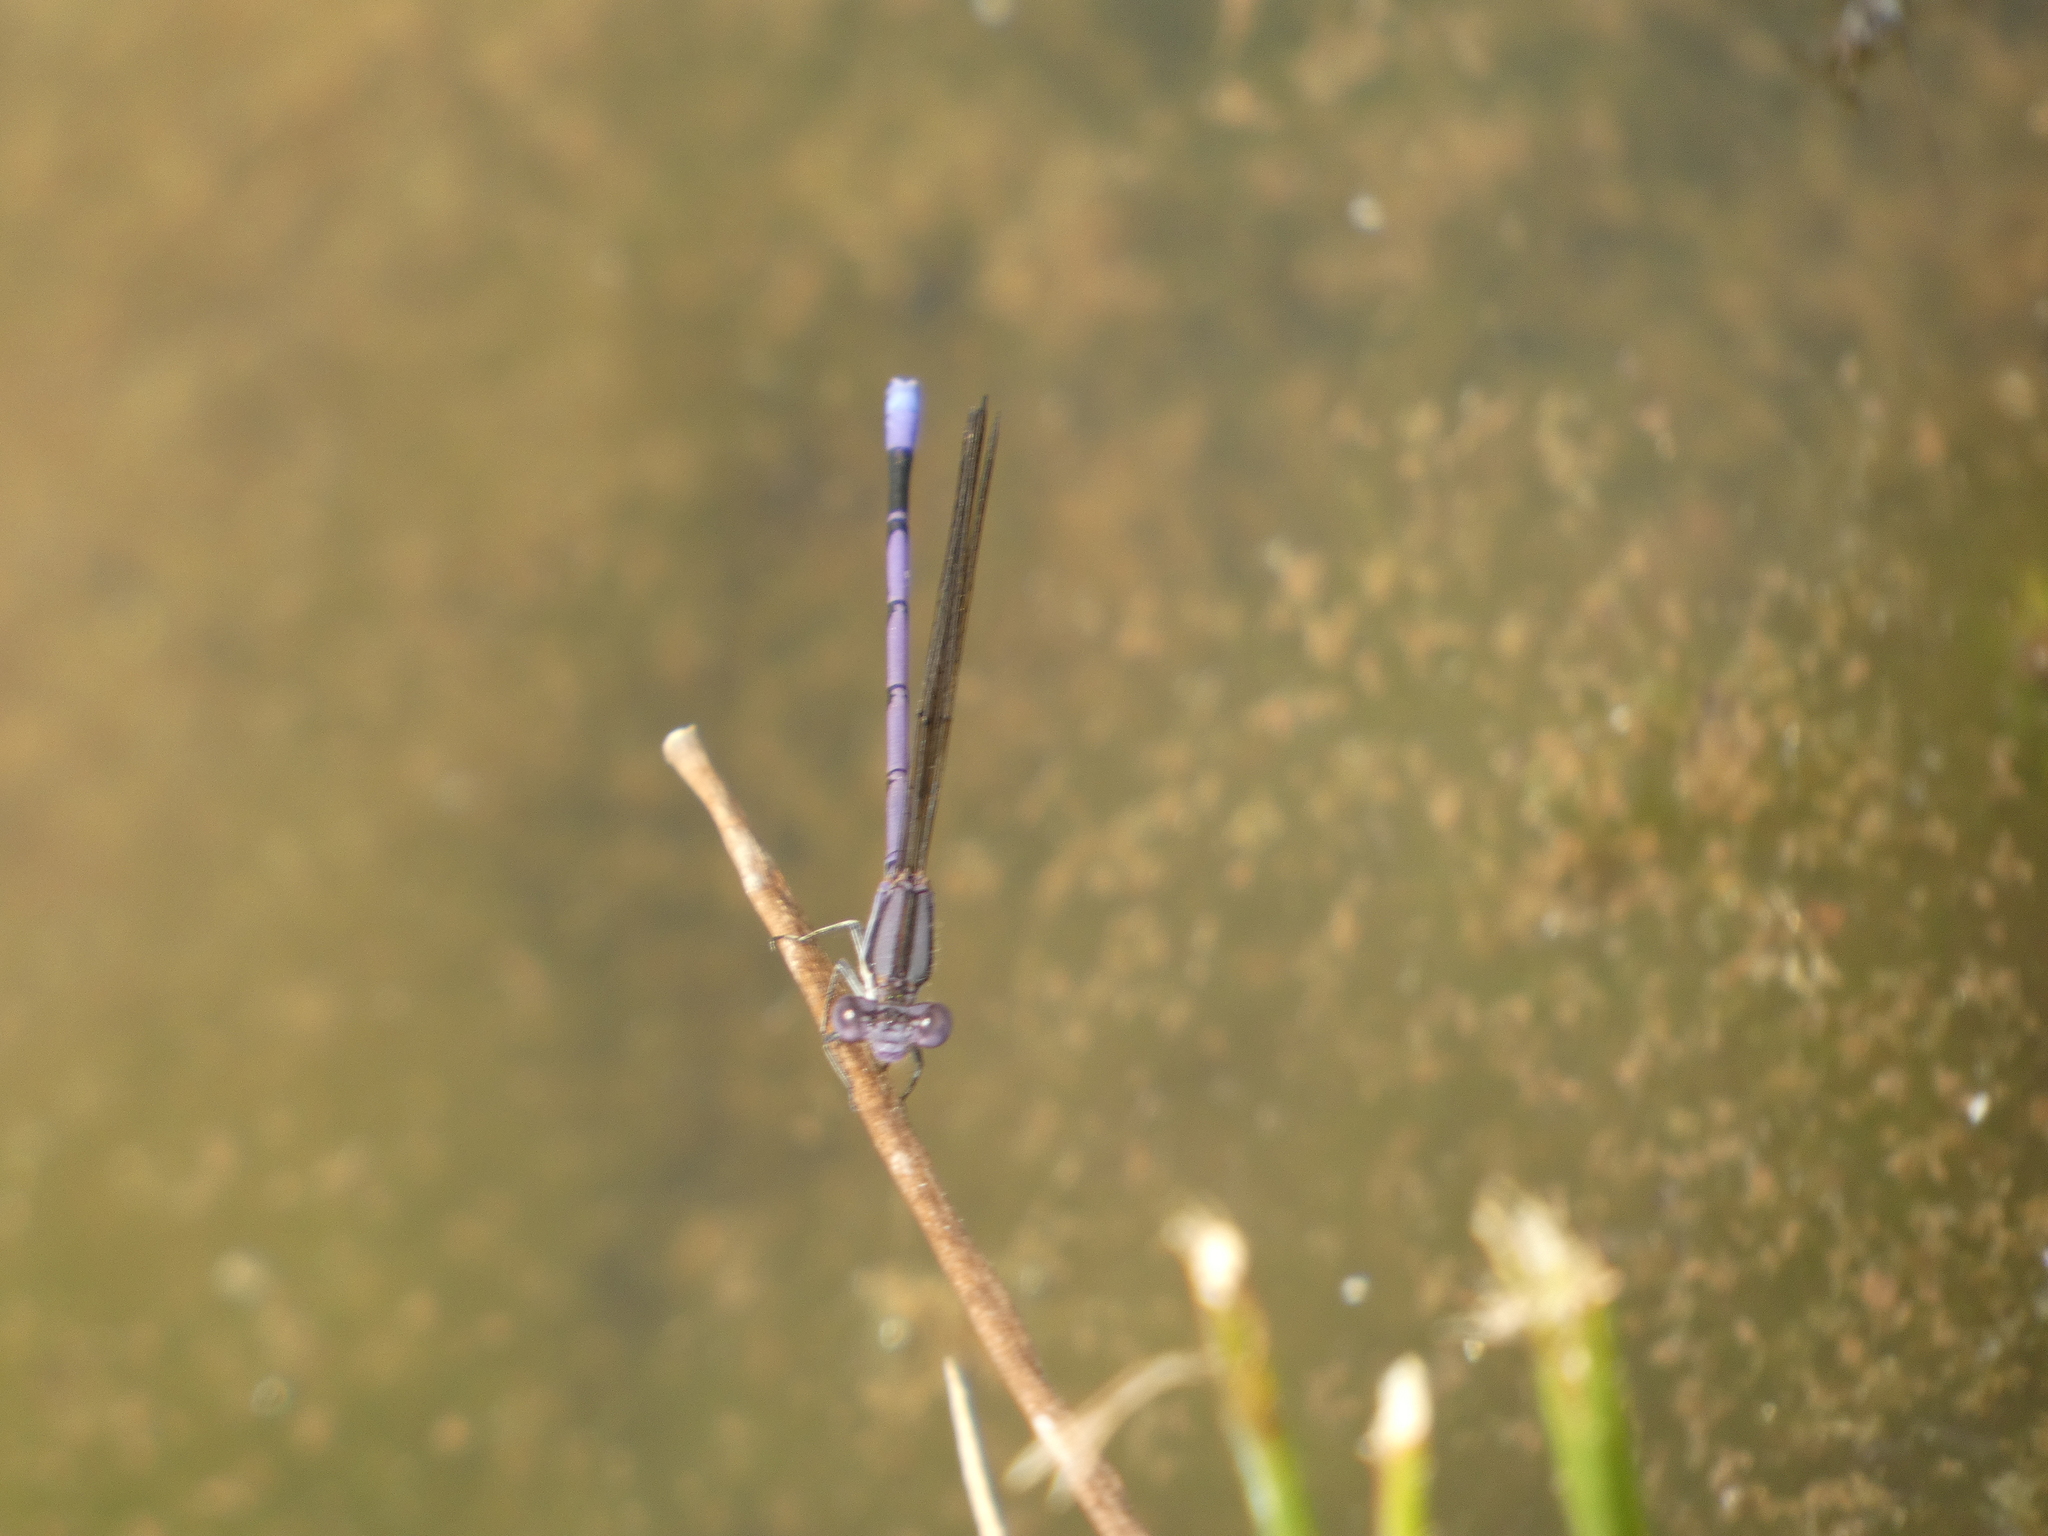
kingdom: Animalia
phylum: Arthropoda
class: Insecta
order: Odonata
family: Coenagrionidae
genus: Argia
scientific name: Argia fumipennis
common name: Variable dancer
